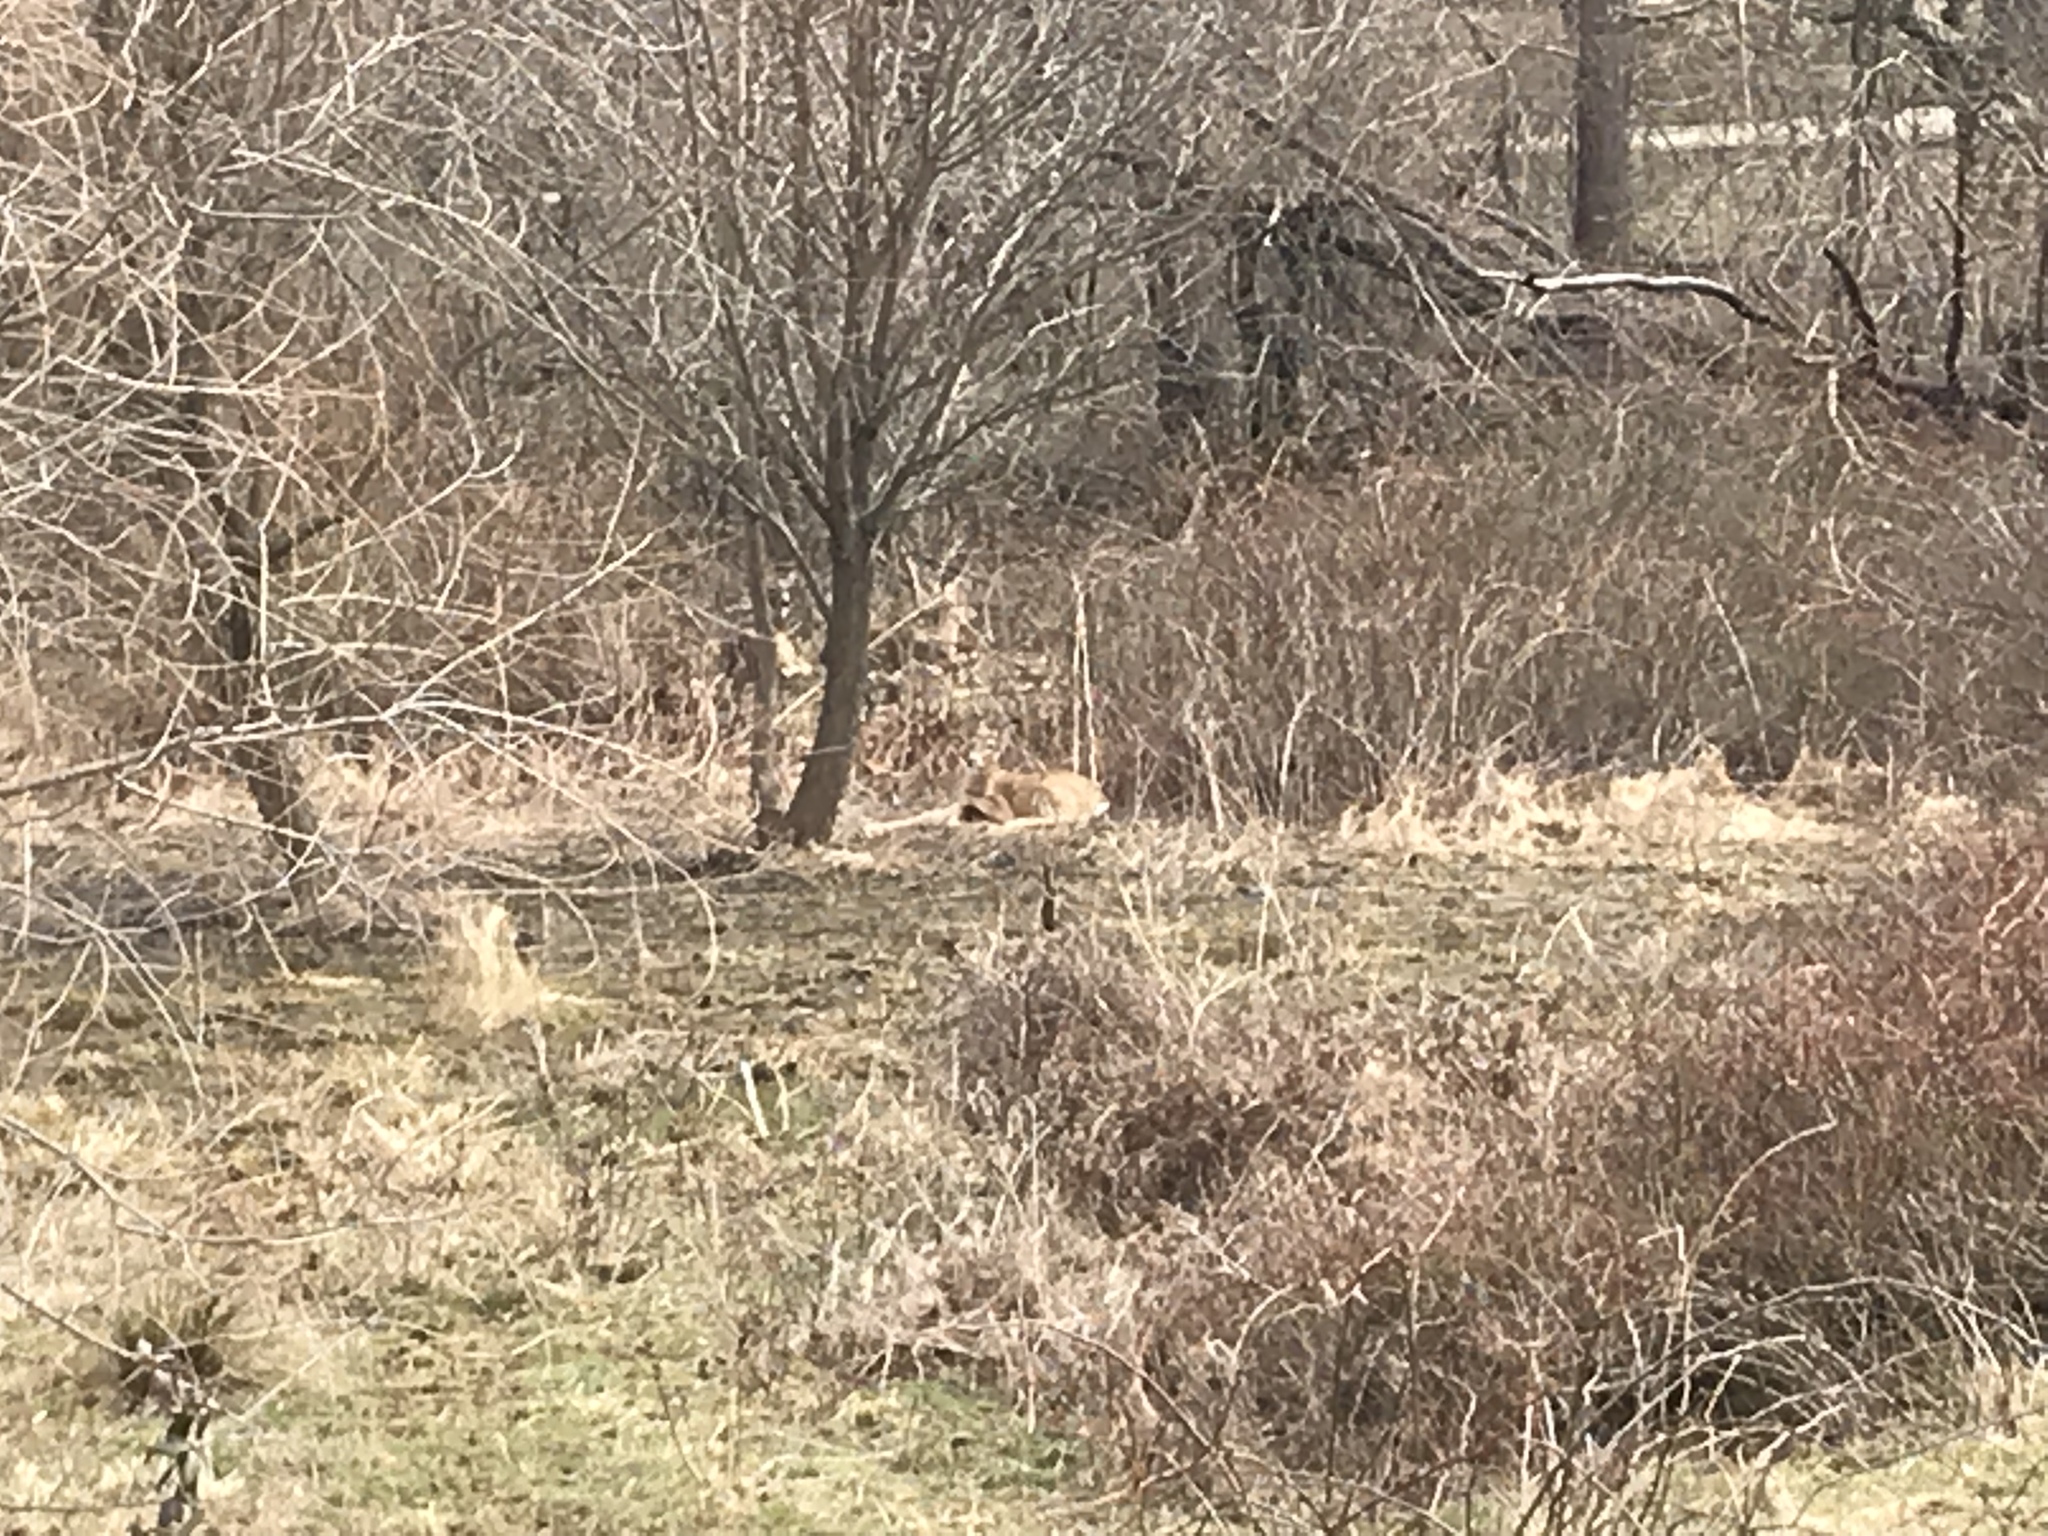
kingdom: Animalia
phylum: Chordata
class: Mammalia
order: Artiodactyla
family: Cervidae
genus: Odocoileus
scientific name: Odocoileus virginianus
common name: White-tailed deer
